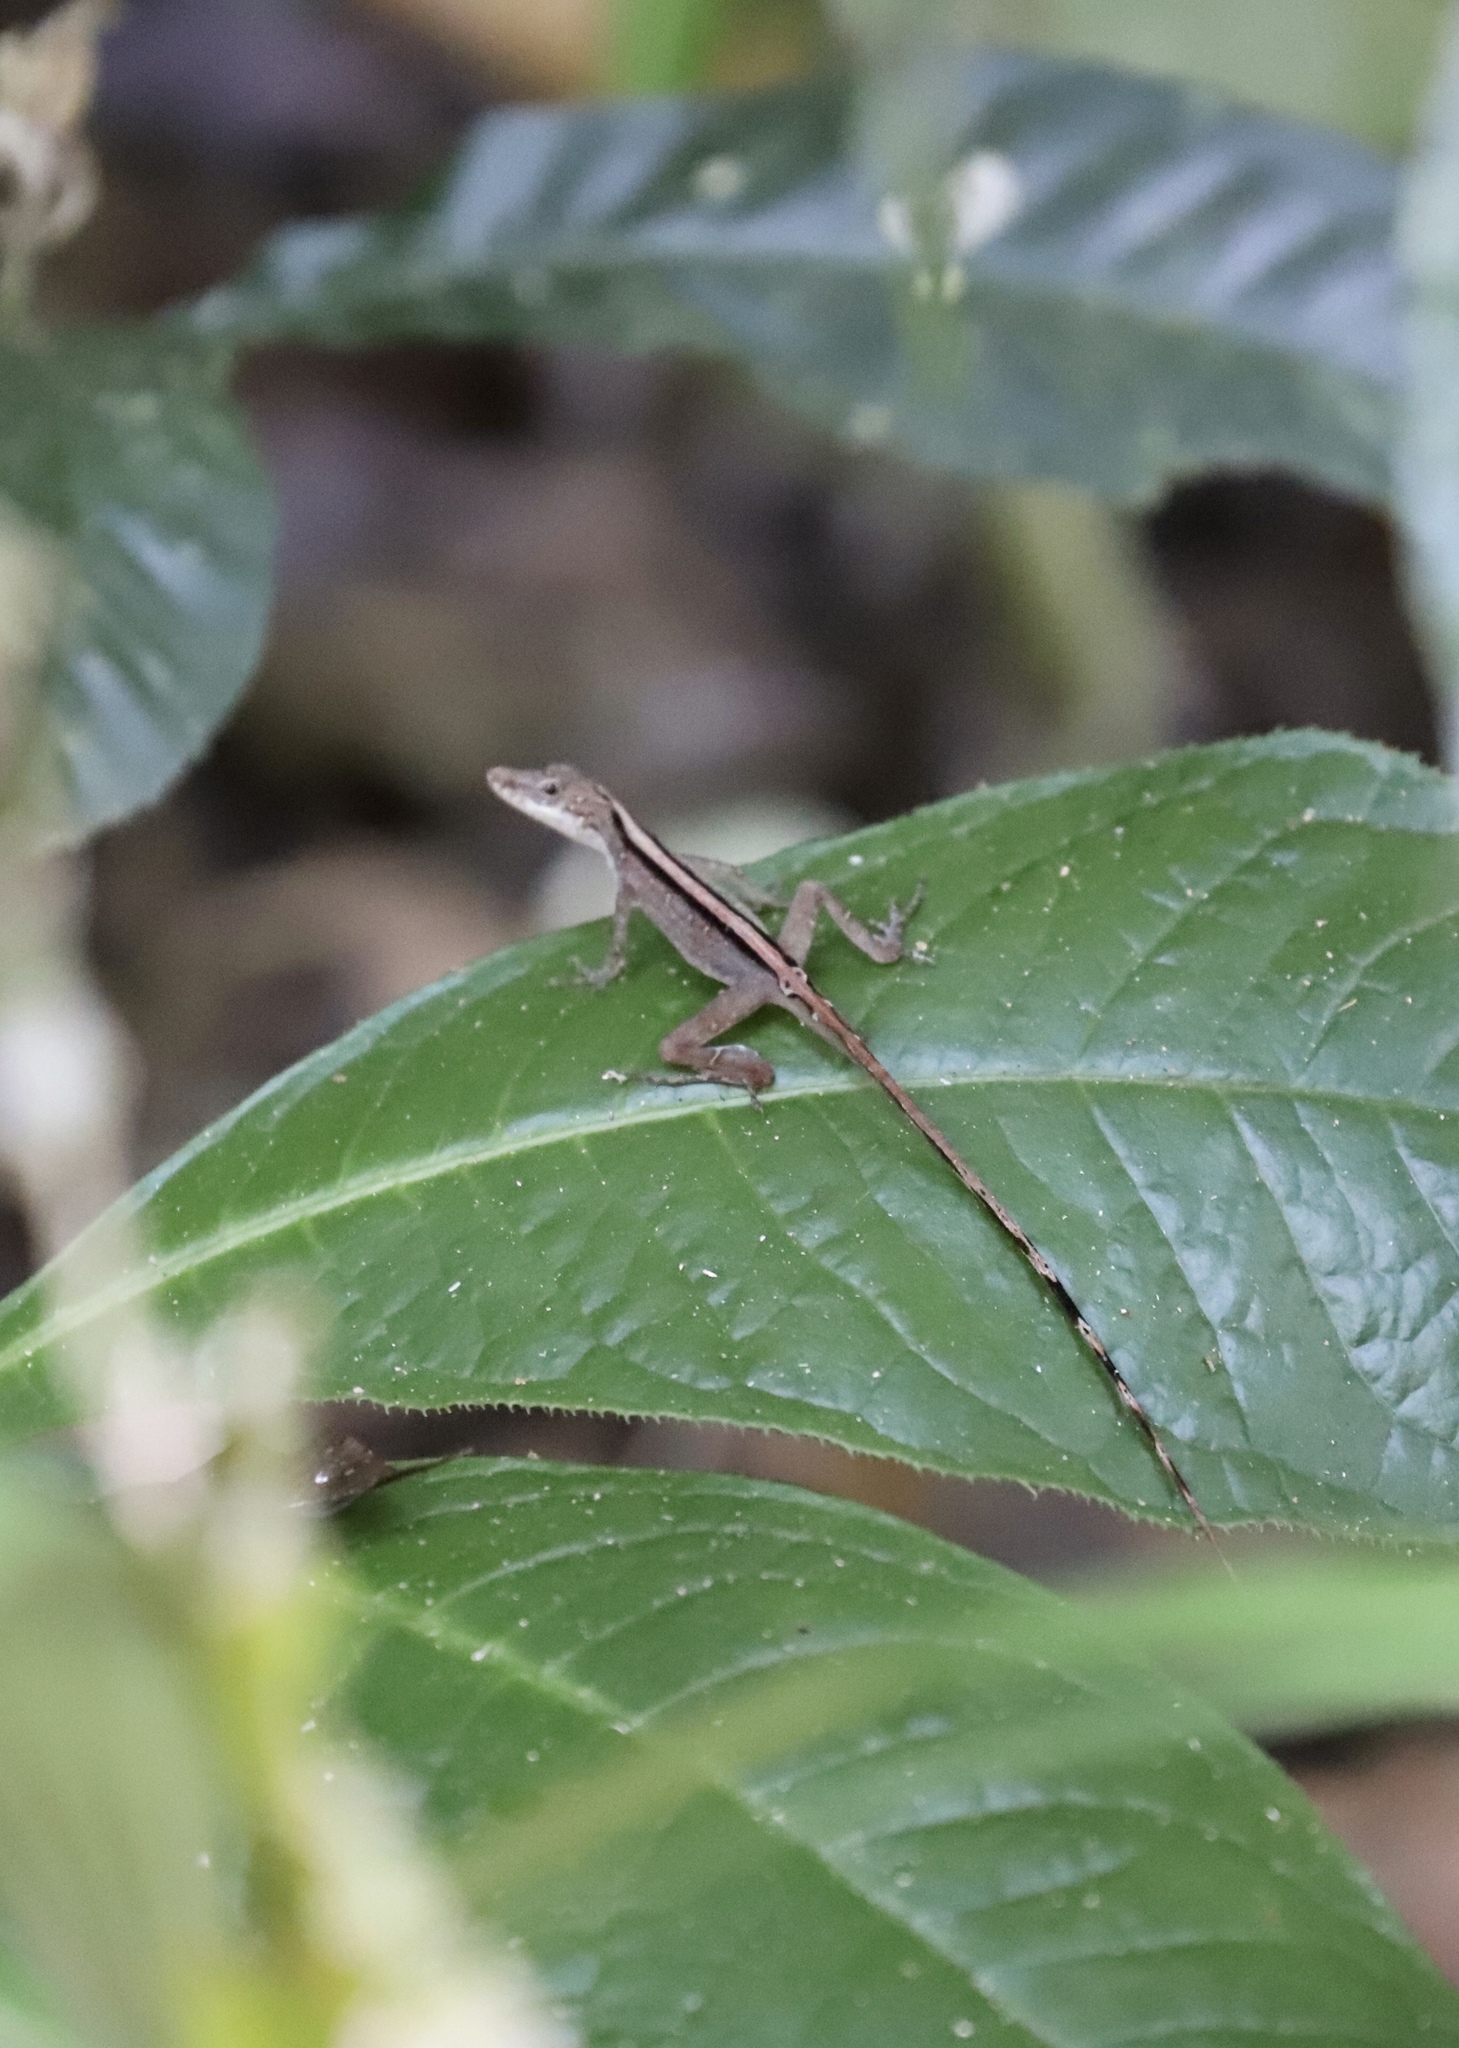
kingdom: Animalia
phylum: Chordata
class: Squamata
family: Dactyloidae
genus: Anolis
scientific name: Anolis apletophallus
